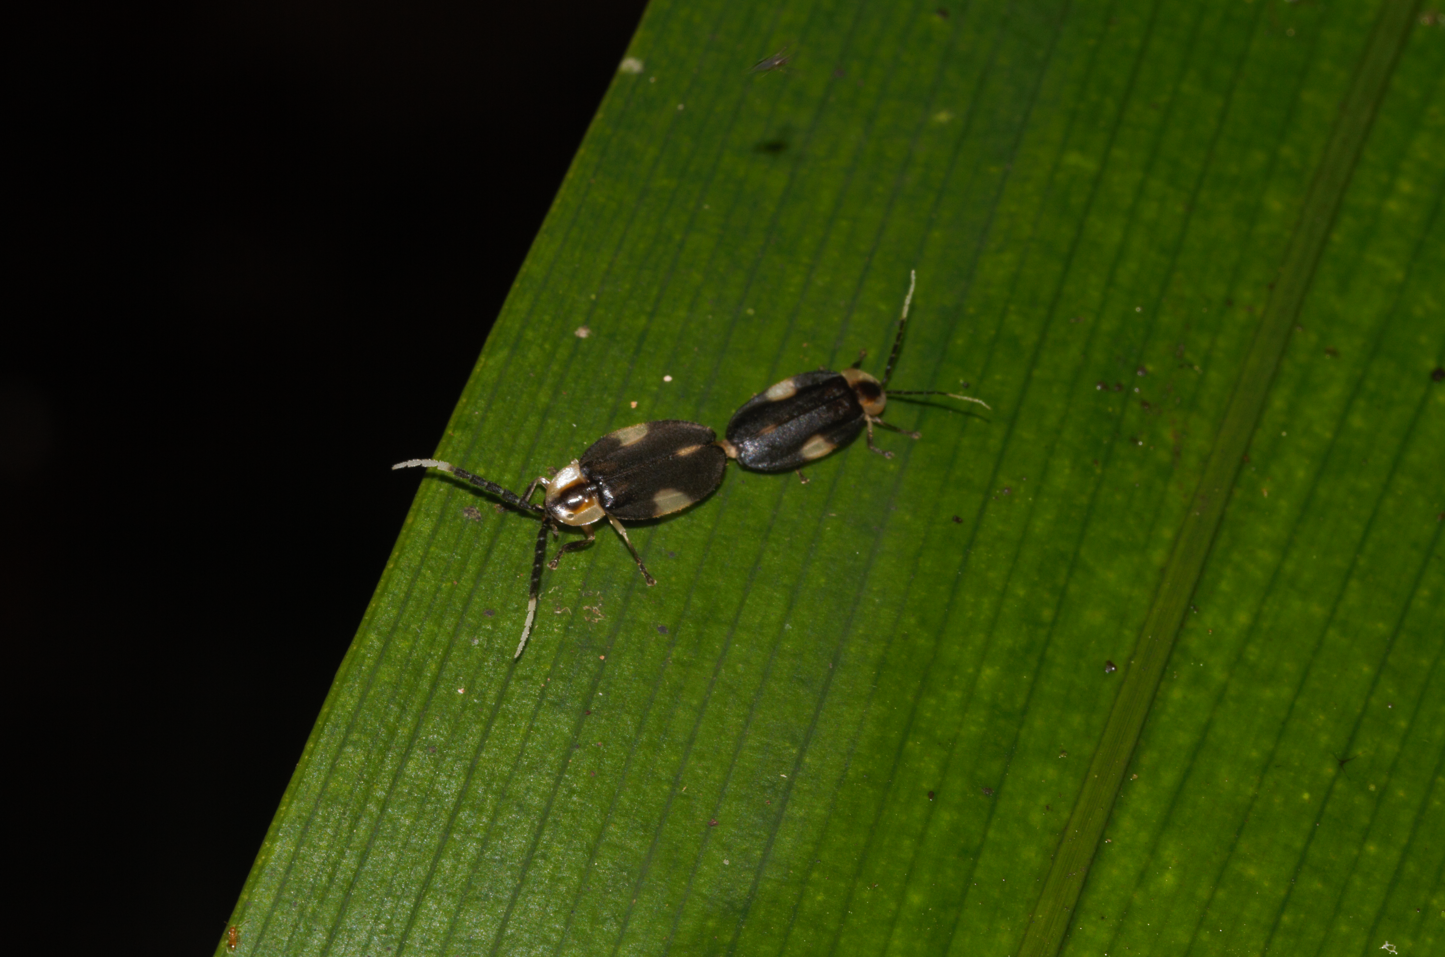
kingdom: Animalia
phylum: Arthropoda
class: Insecta
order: Coleoptera
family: Lampyridae
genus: Lucidota
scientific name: Lucidota mellicula
